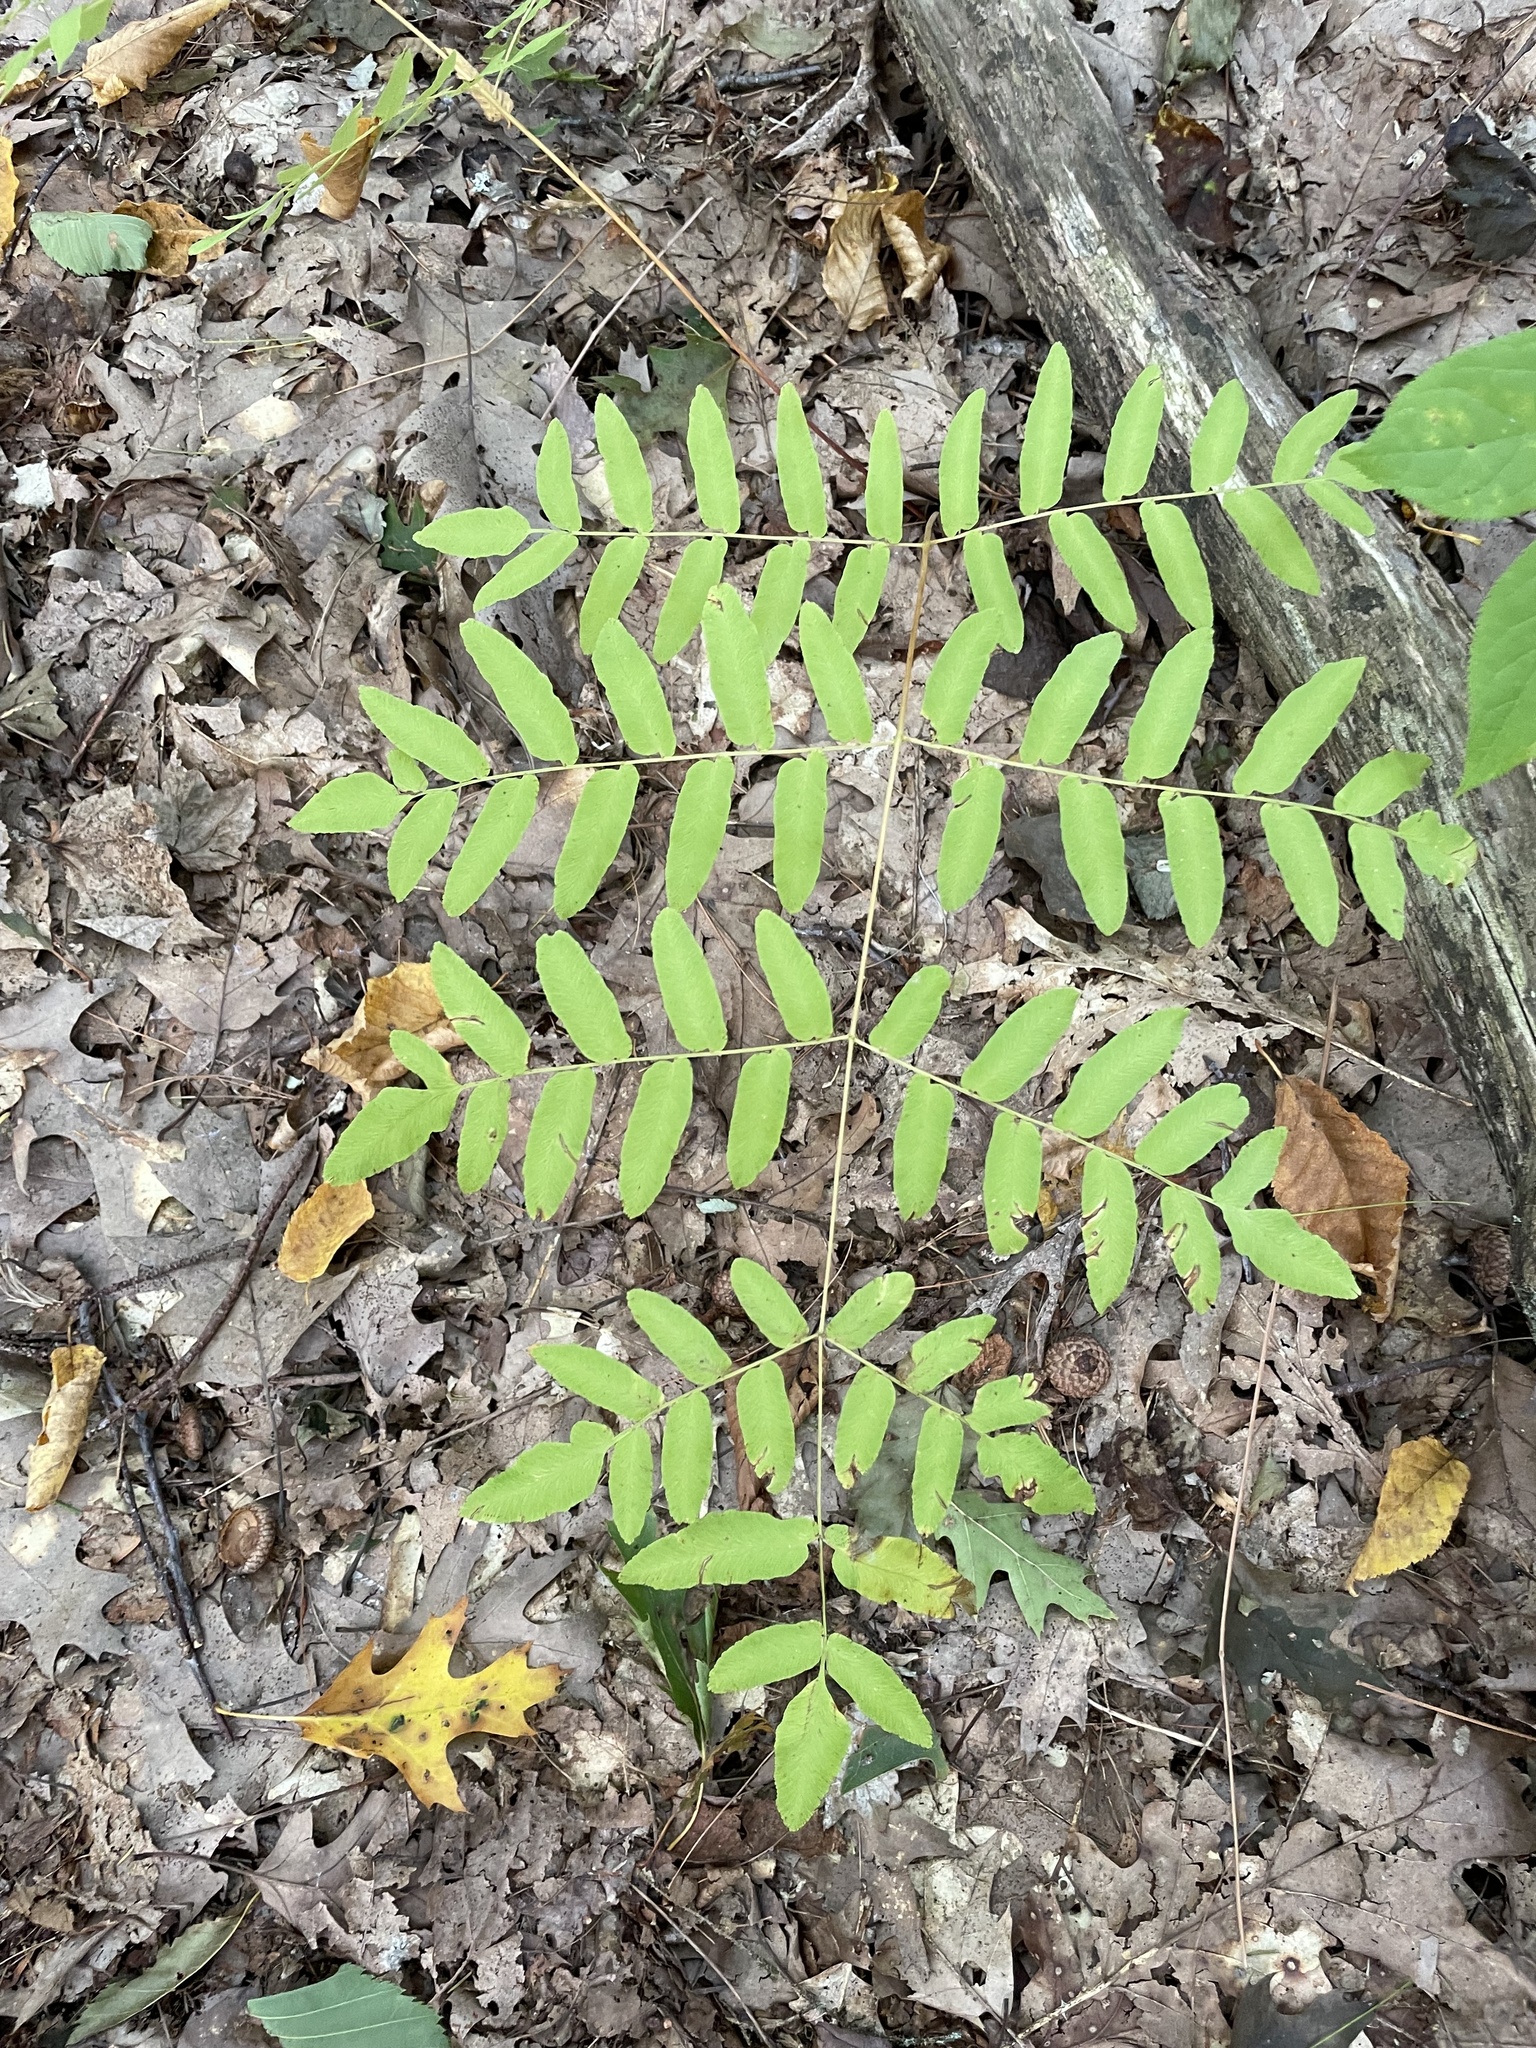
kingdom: Plantae
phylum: Tracheophyta
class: Polypodiopsida
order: Osmundales
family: Osmundaceae
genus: Osmunda
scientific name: Osmunda spectabilis
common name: American royal fern
